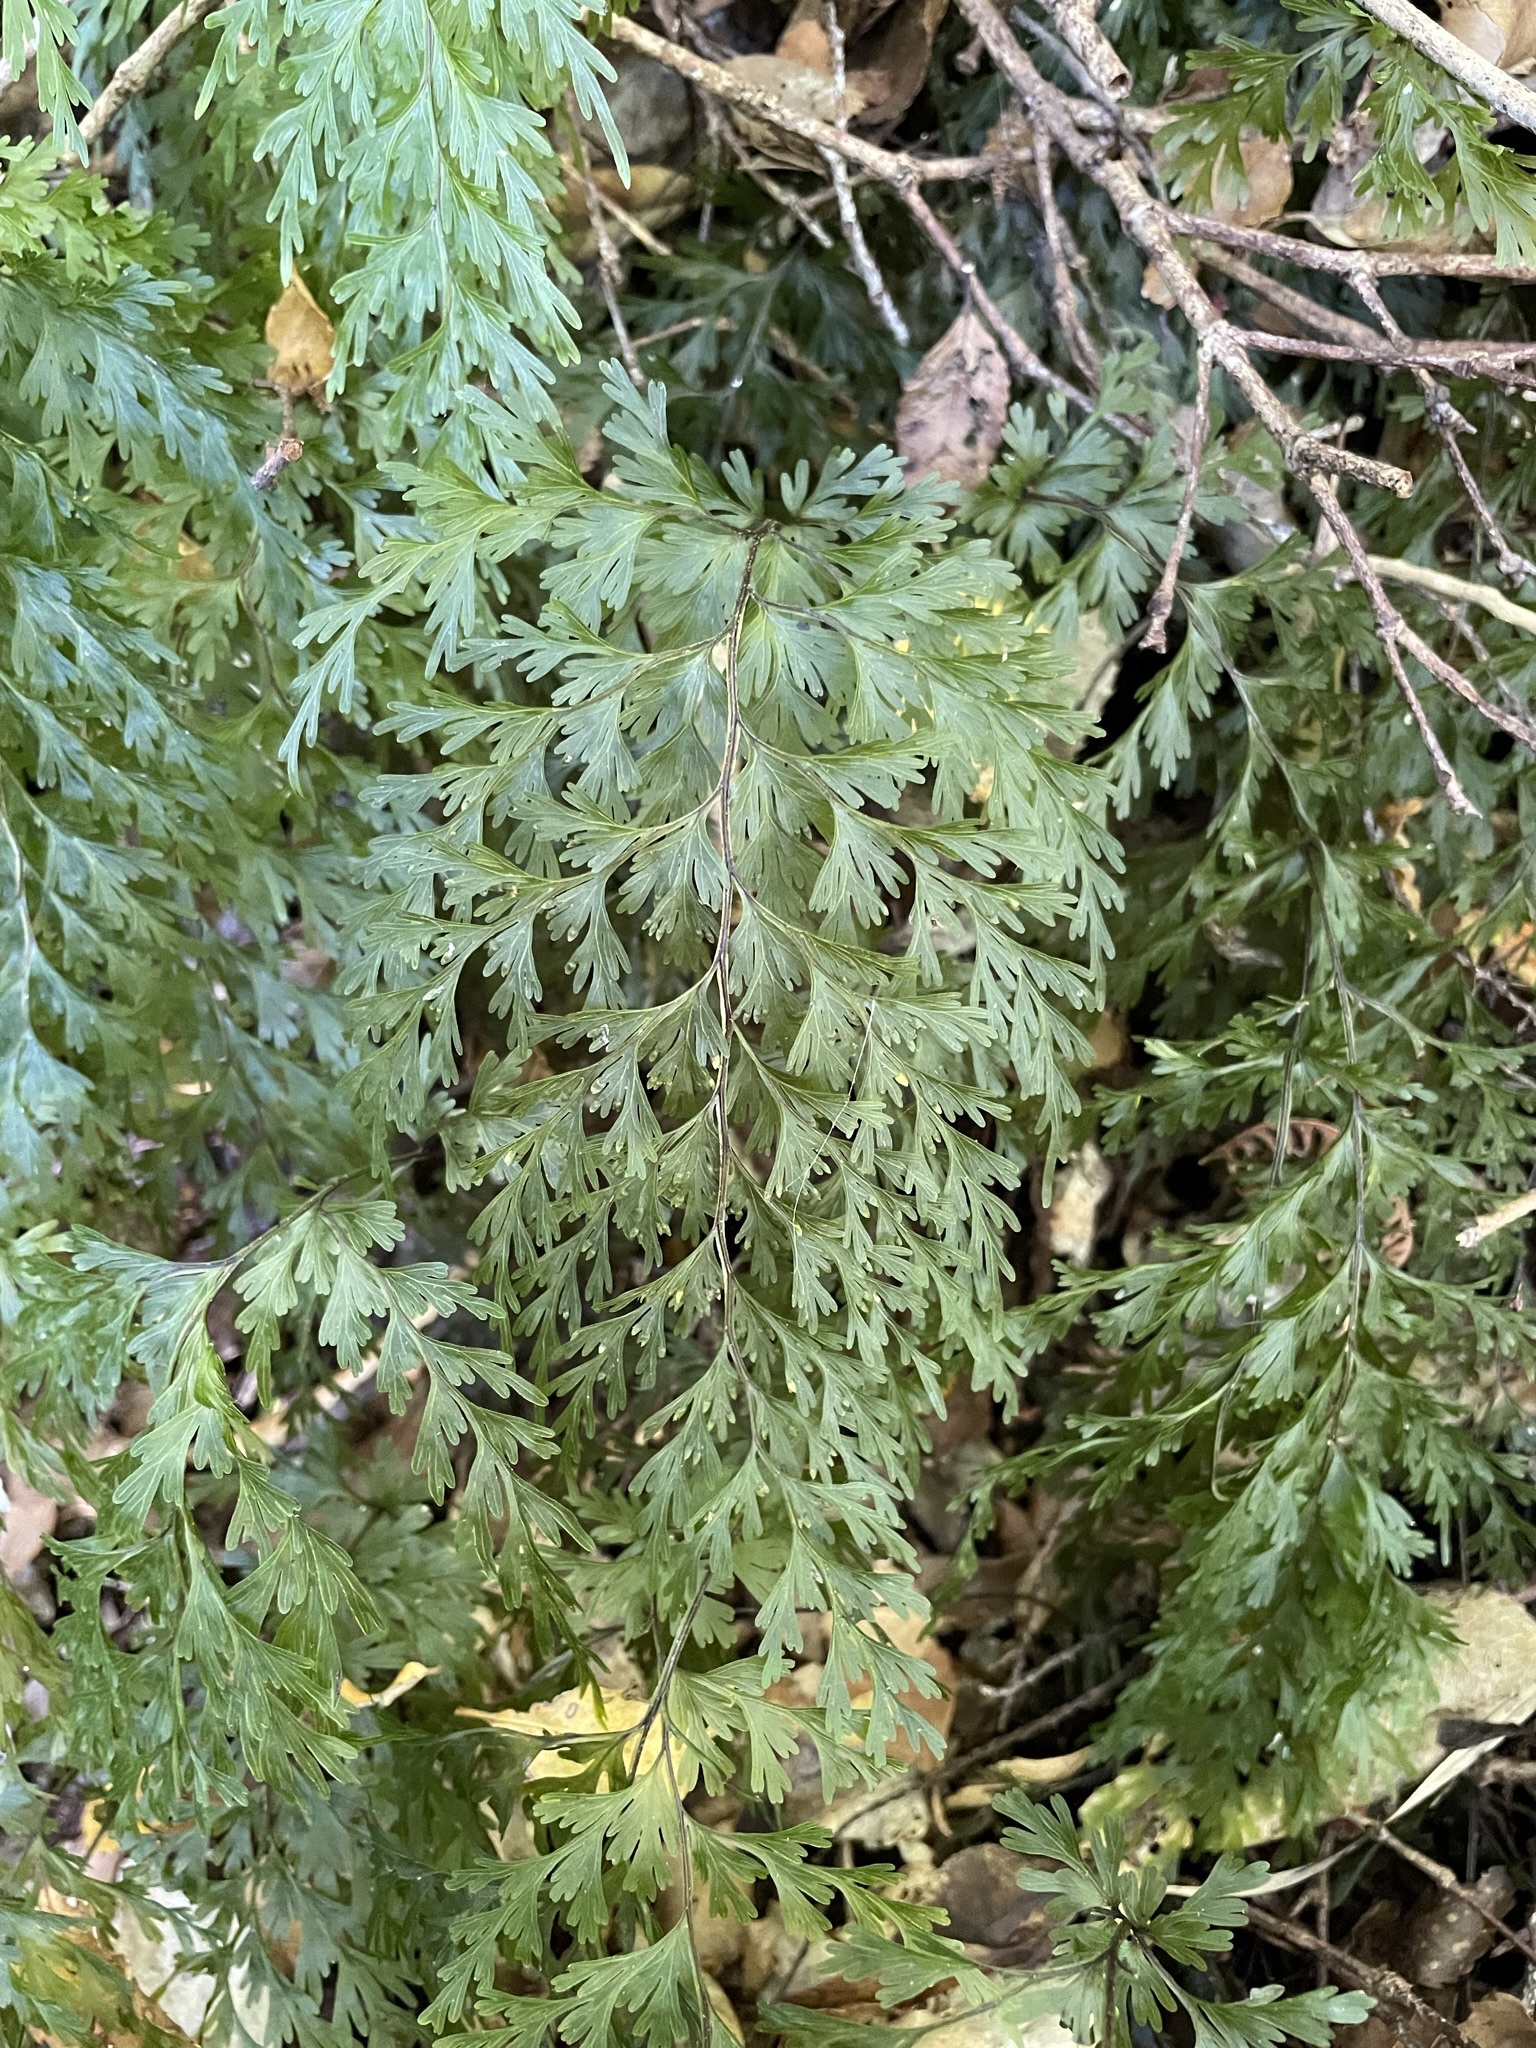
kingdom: Plantae
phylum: Tracheophyta
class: Polypodiopsida
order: Hymenophyllales
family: Hymenophyllaceae
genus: Hymenophyllum
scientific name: Hymenophyllum demissum
